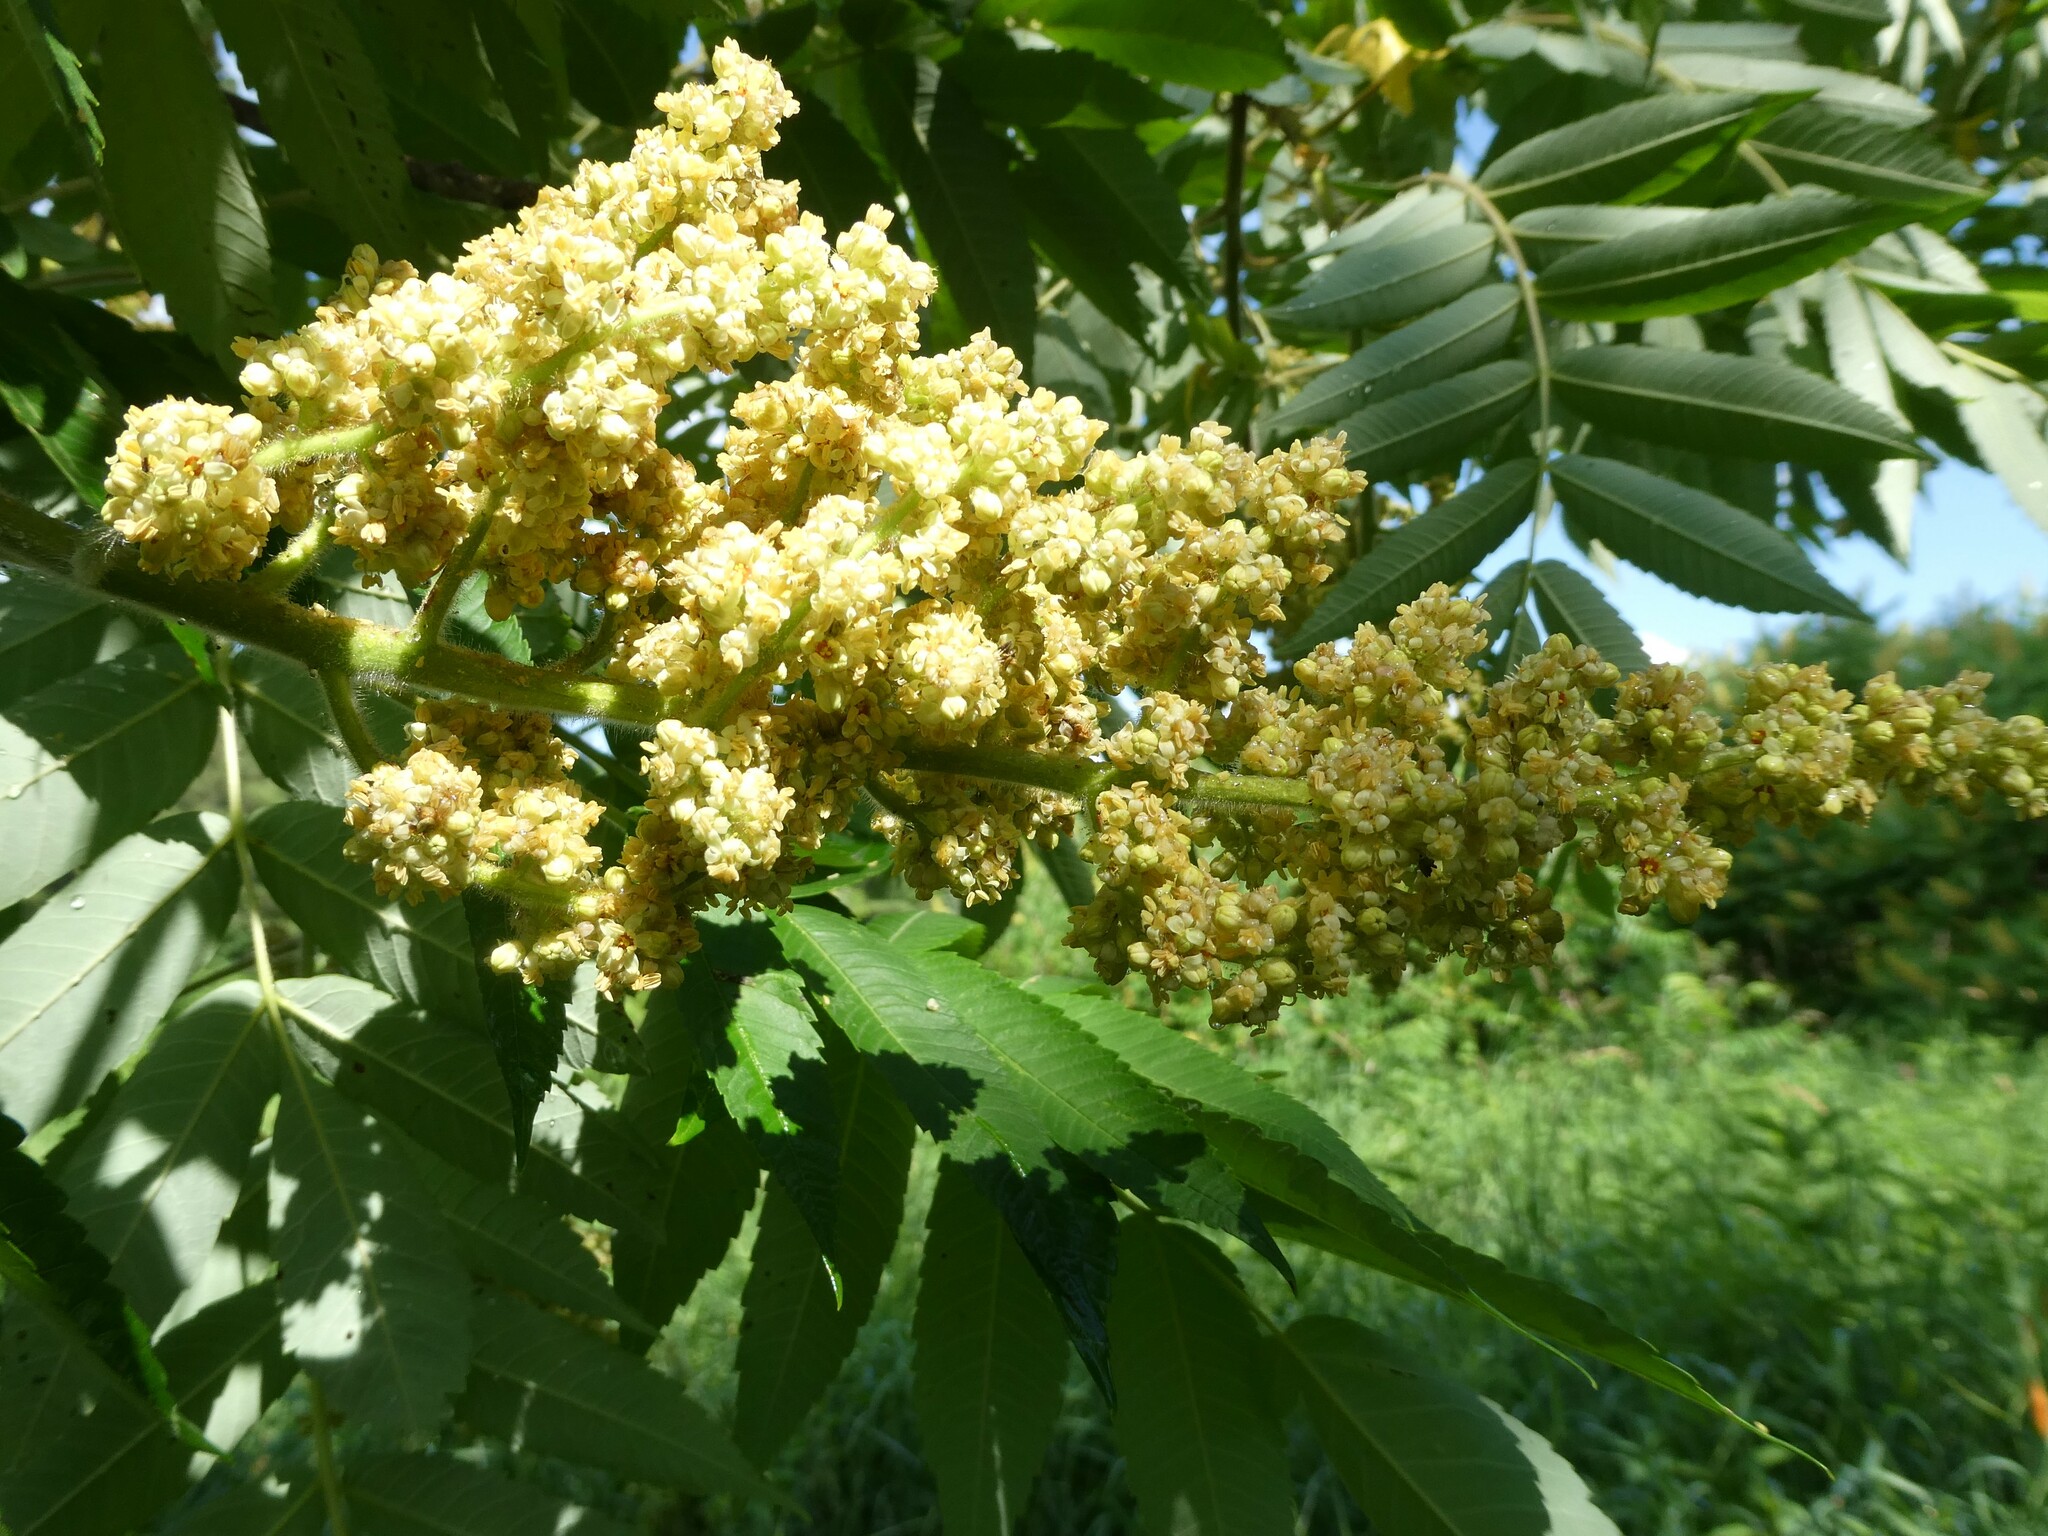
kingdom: Plantae
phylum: Tracheophyta
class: Magnoliopsida
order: Sapindales
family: Anacardiaceae
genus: Rhus
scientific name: Rhus typhina
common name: Staghorn sumac
